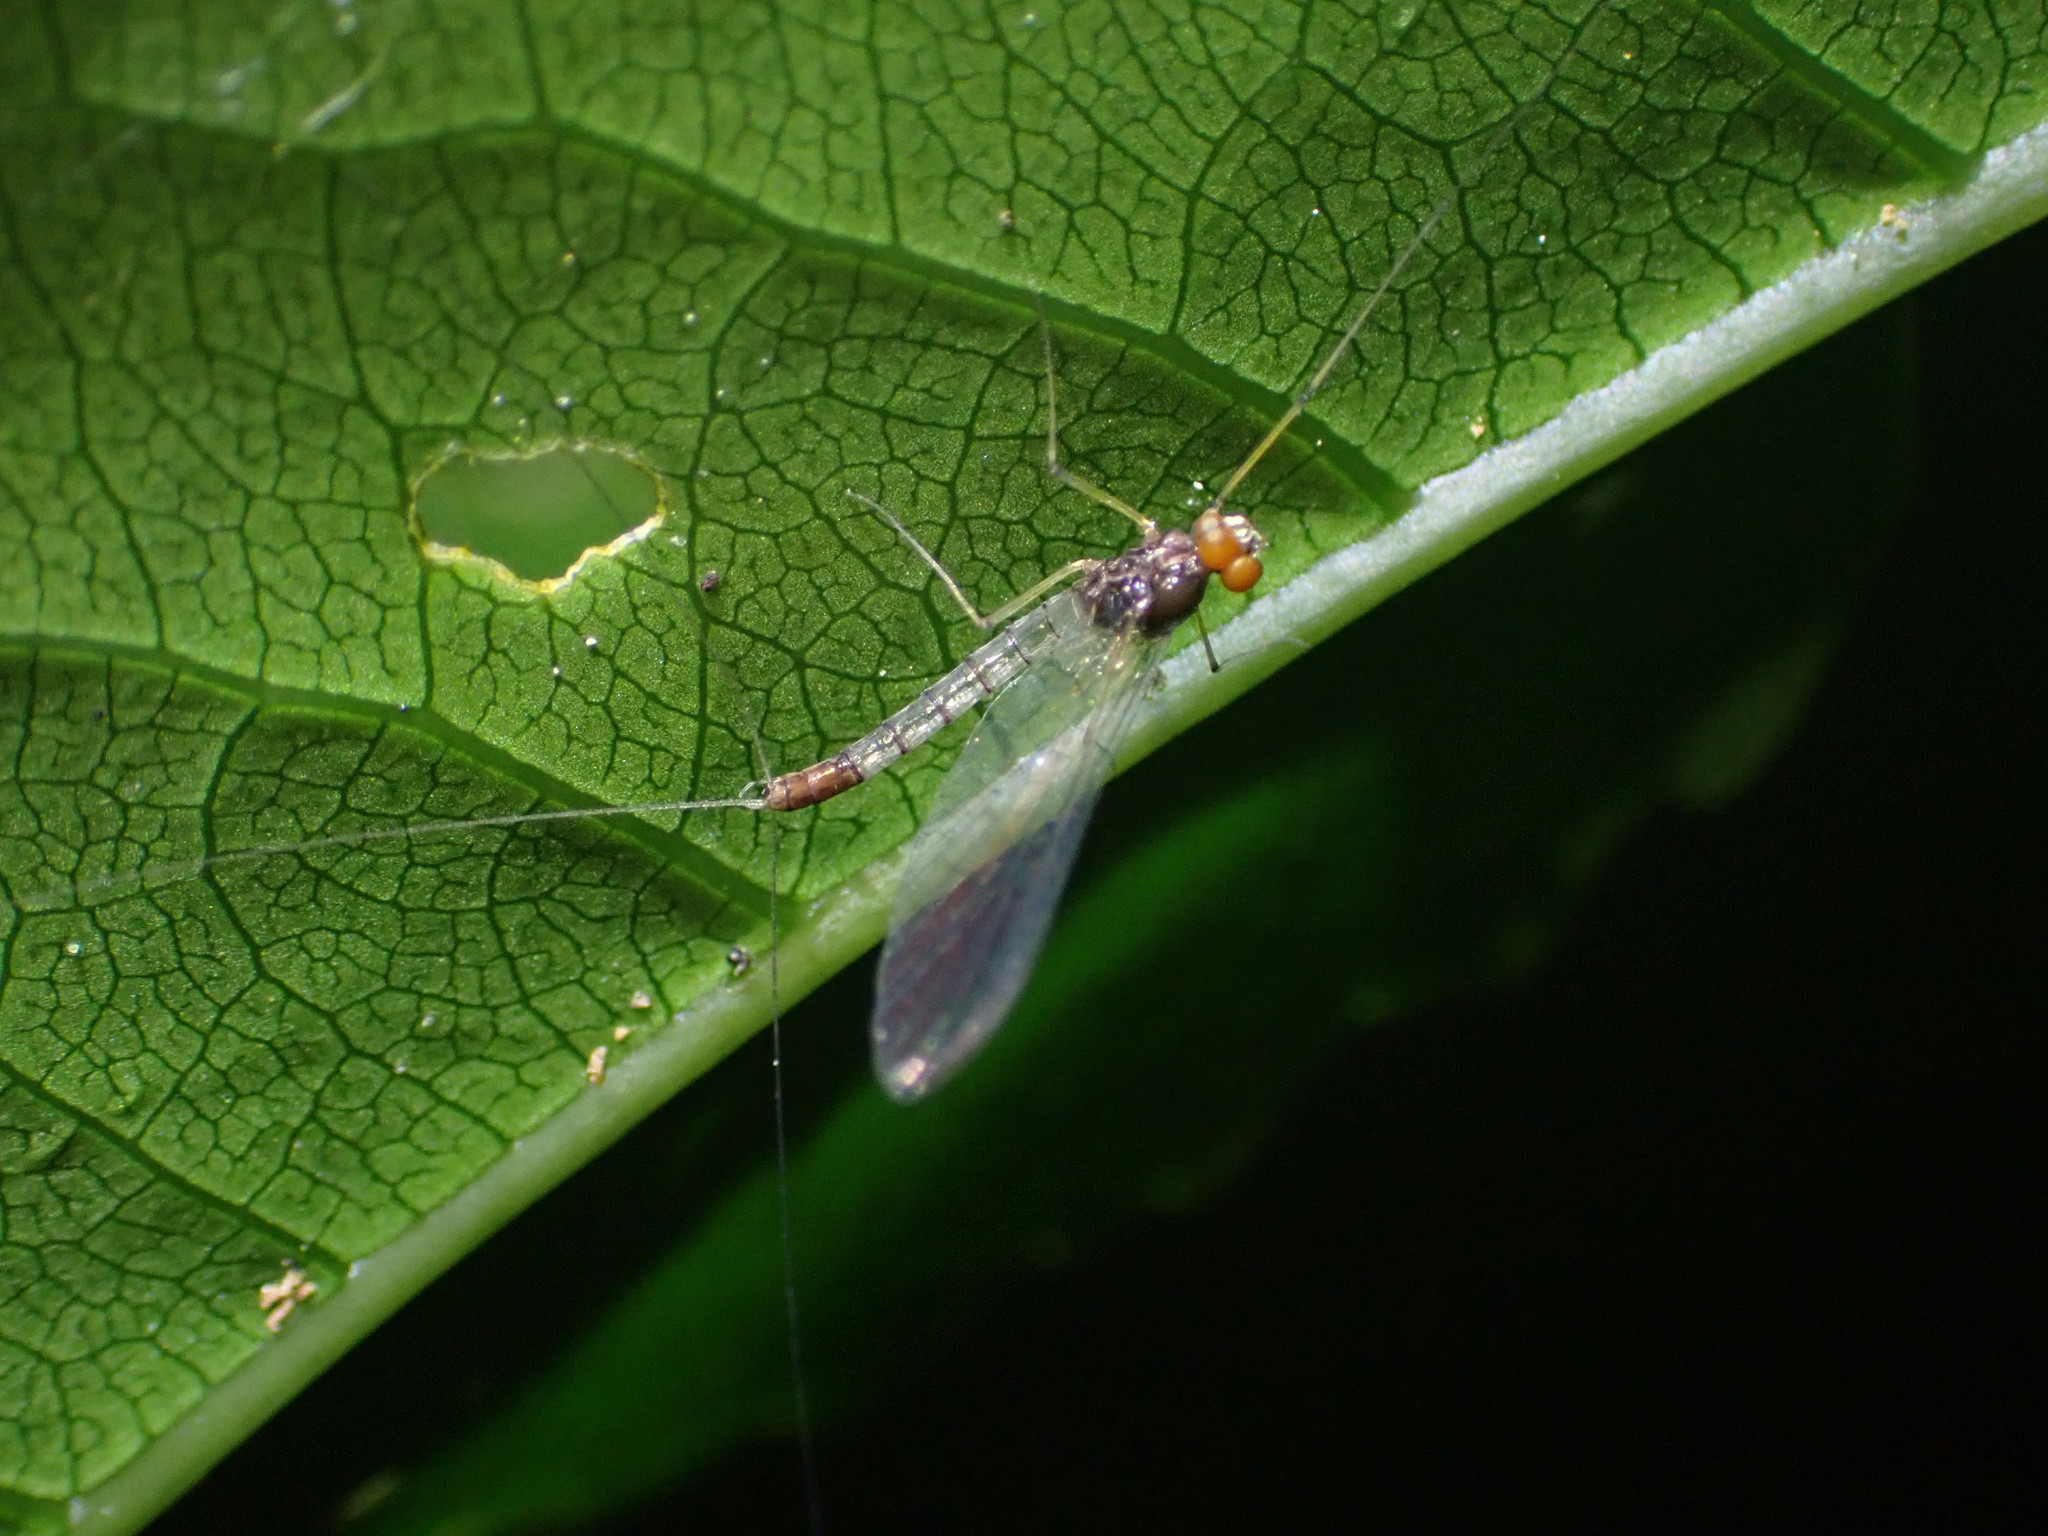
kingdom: Animalia
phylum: Arthropoda
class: Insecta
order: Ephemeroptera
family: Leptophlebiidae
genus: Mauiulus
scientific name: Mauiulus luma
